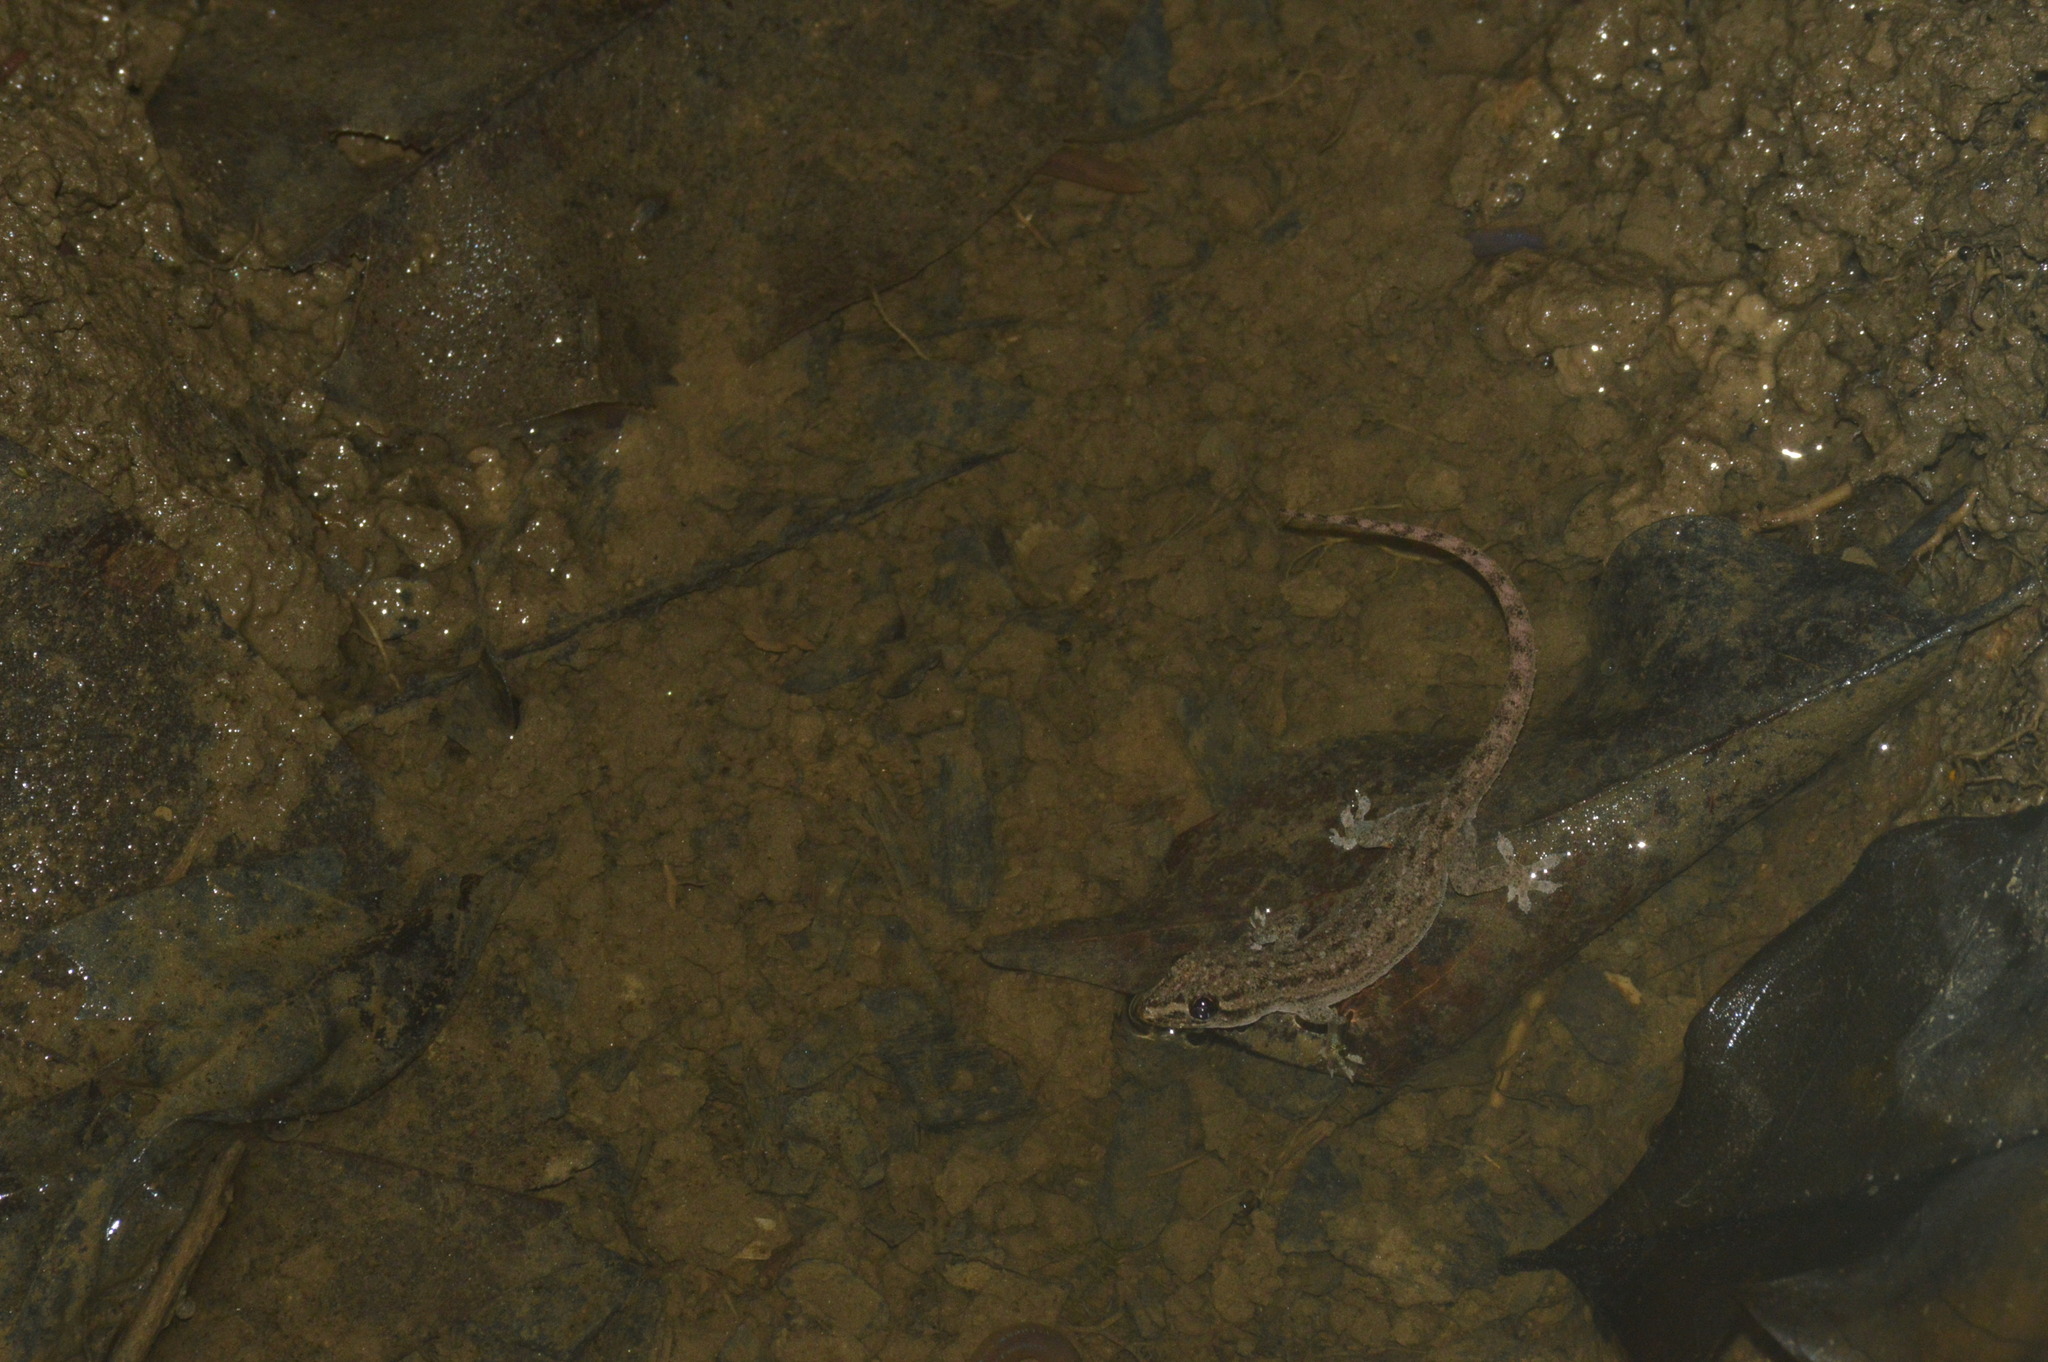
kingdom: Animalia
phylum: Chordata
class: Squamata
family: Gekkonidae
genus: Hemidactylus
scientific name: Hemidactylus frenatus
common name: Common house gecko
